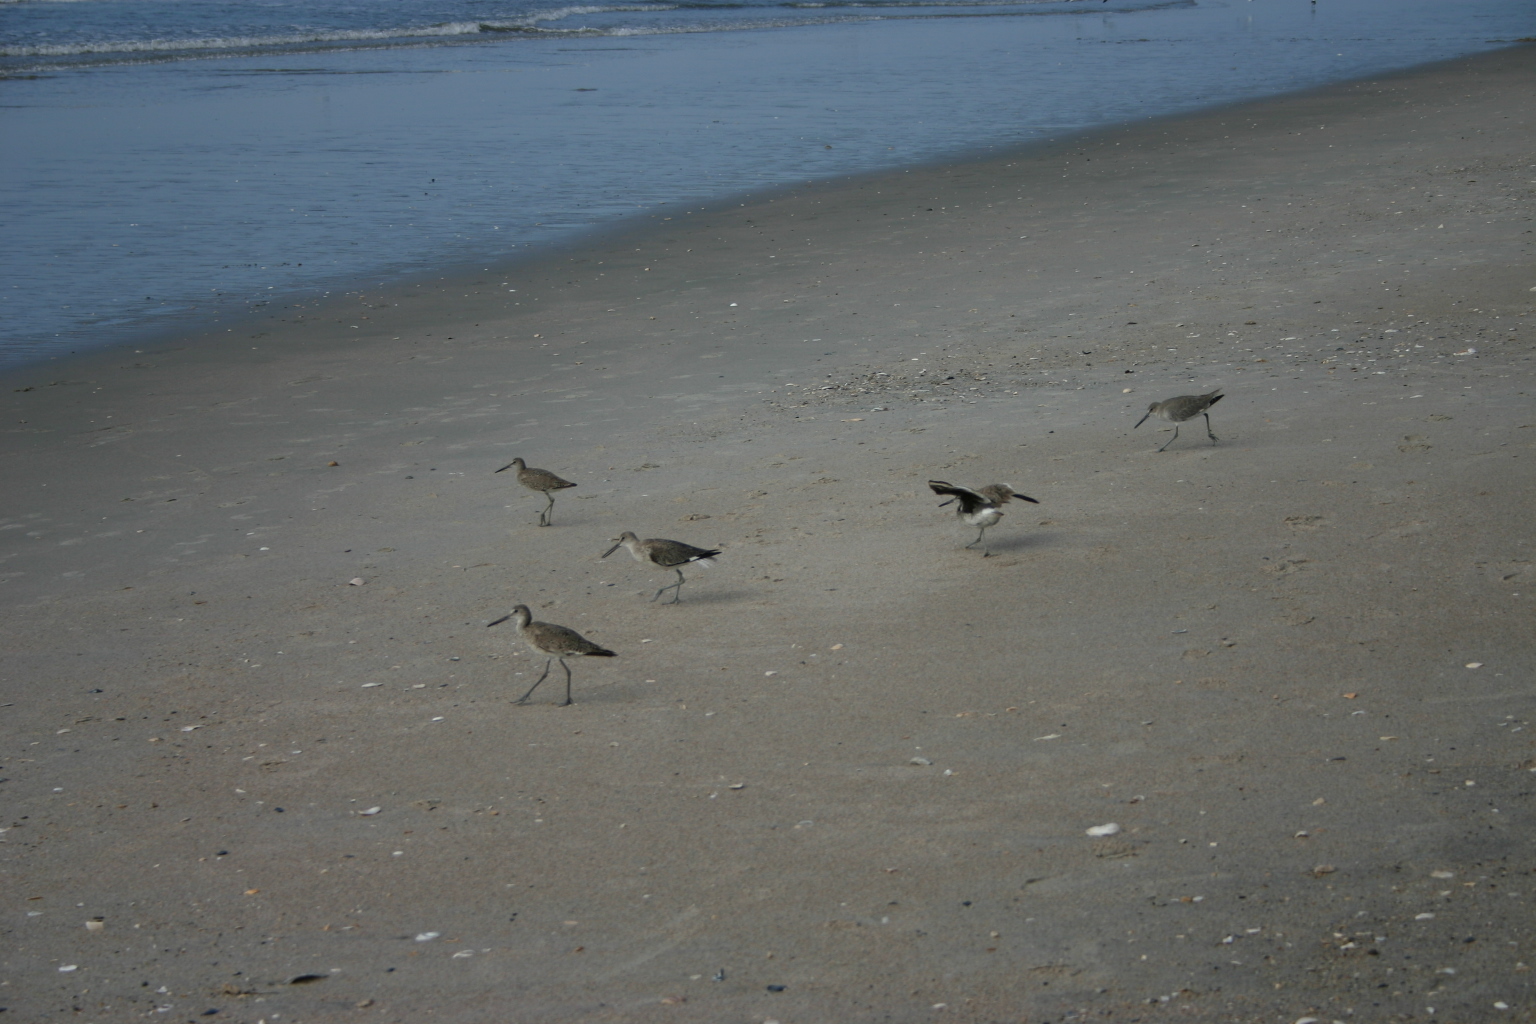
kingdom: Animalia
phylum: Chordata
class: Aves
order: Charadriiformes
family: Scolopacidae
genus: Tringa
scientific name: Tringa semipalmata
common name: Willet
